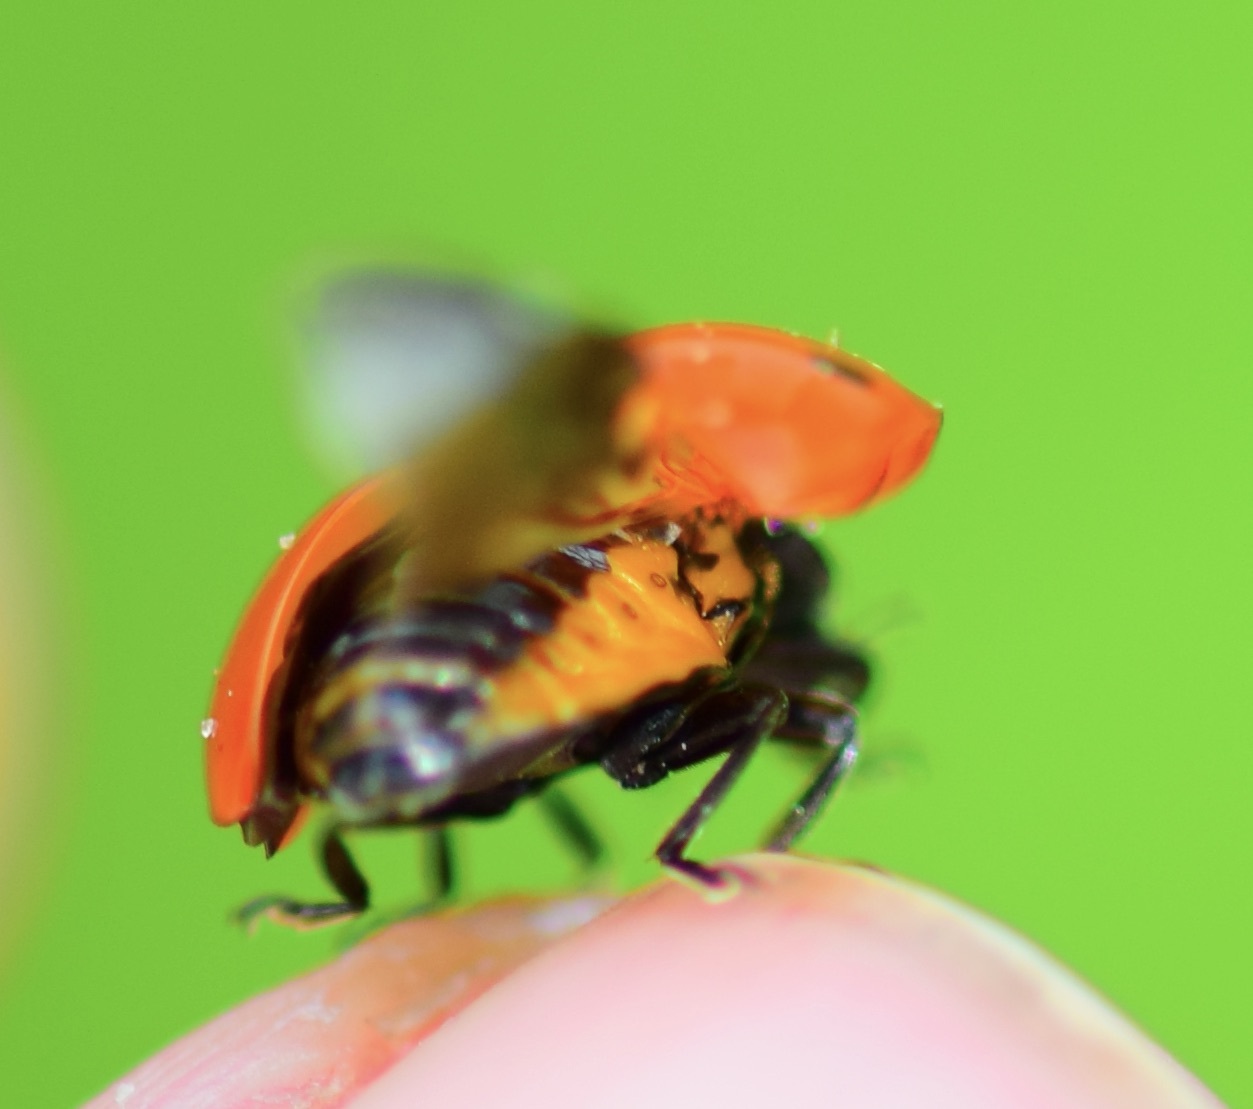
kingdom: Animalia
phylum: Arthropoda
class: Insecta
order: Coleoptera
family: Coccinellidae
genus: Coccinella
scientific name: Coccinella septempunctata
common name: Sevenspotted lady beetle
